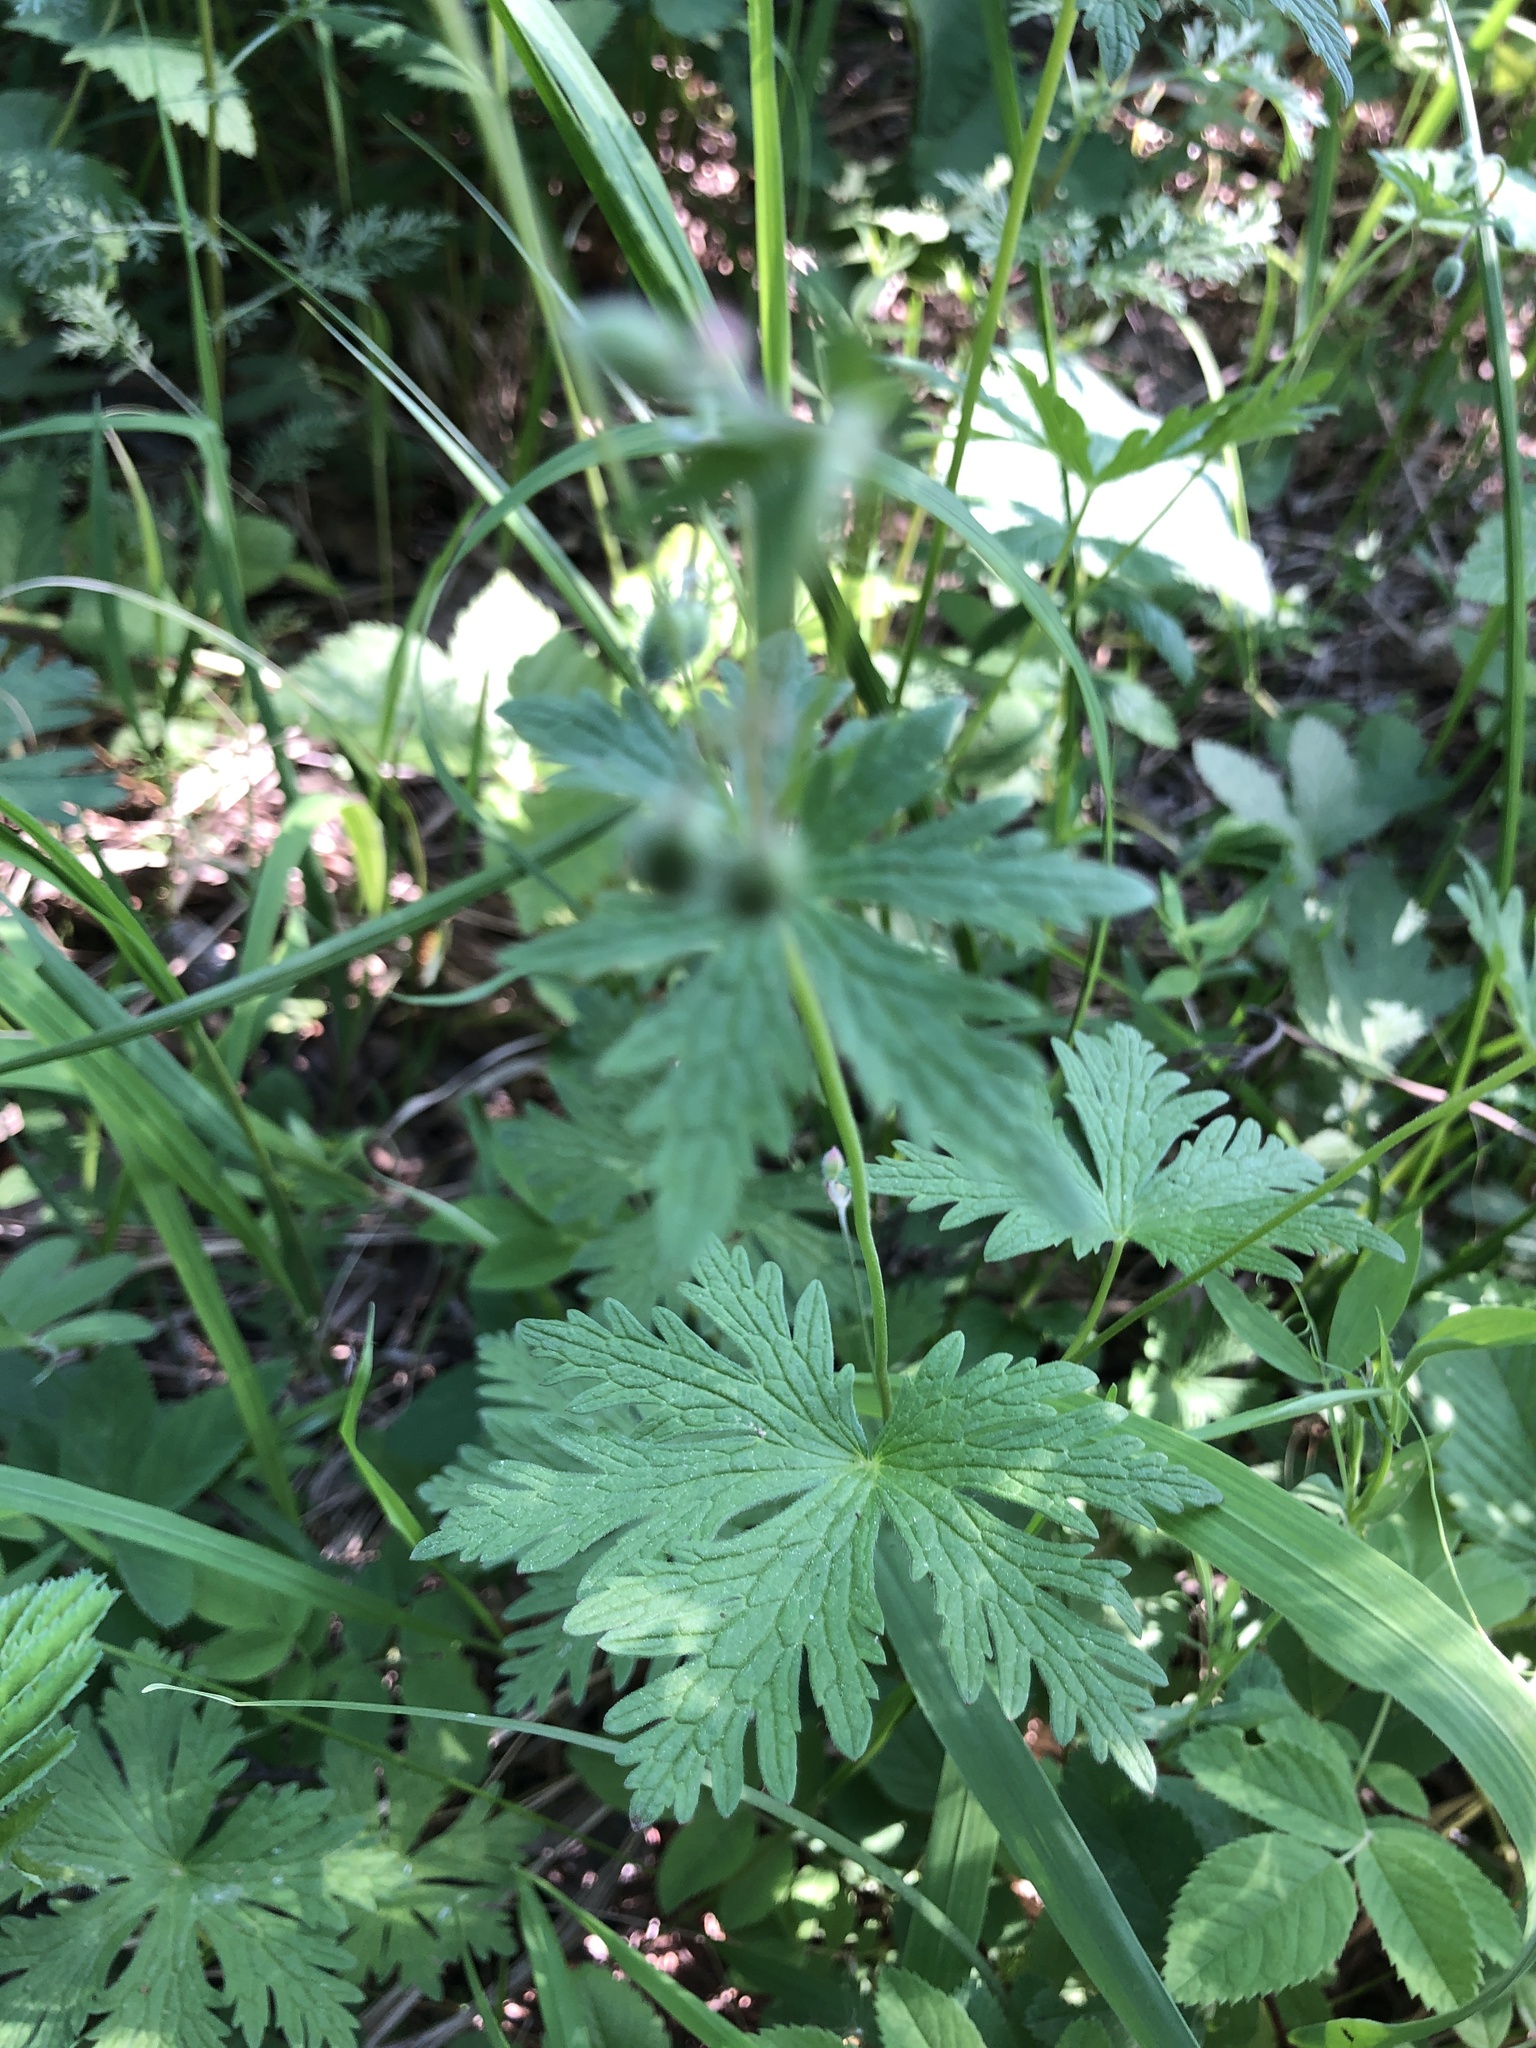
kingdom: Plantae
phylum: Tracheophyta
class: Magnoliopsida
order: Geraniales
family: Geraniaceae
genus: Geranium
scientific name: Geranium sibiricum
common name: Siberian crane's-bill
